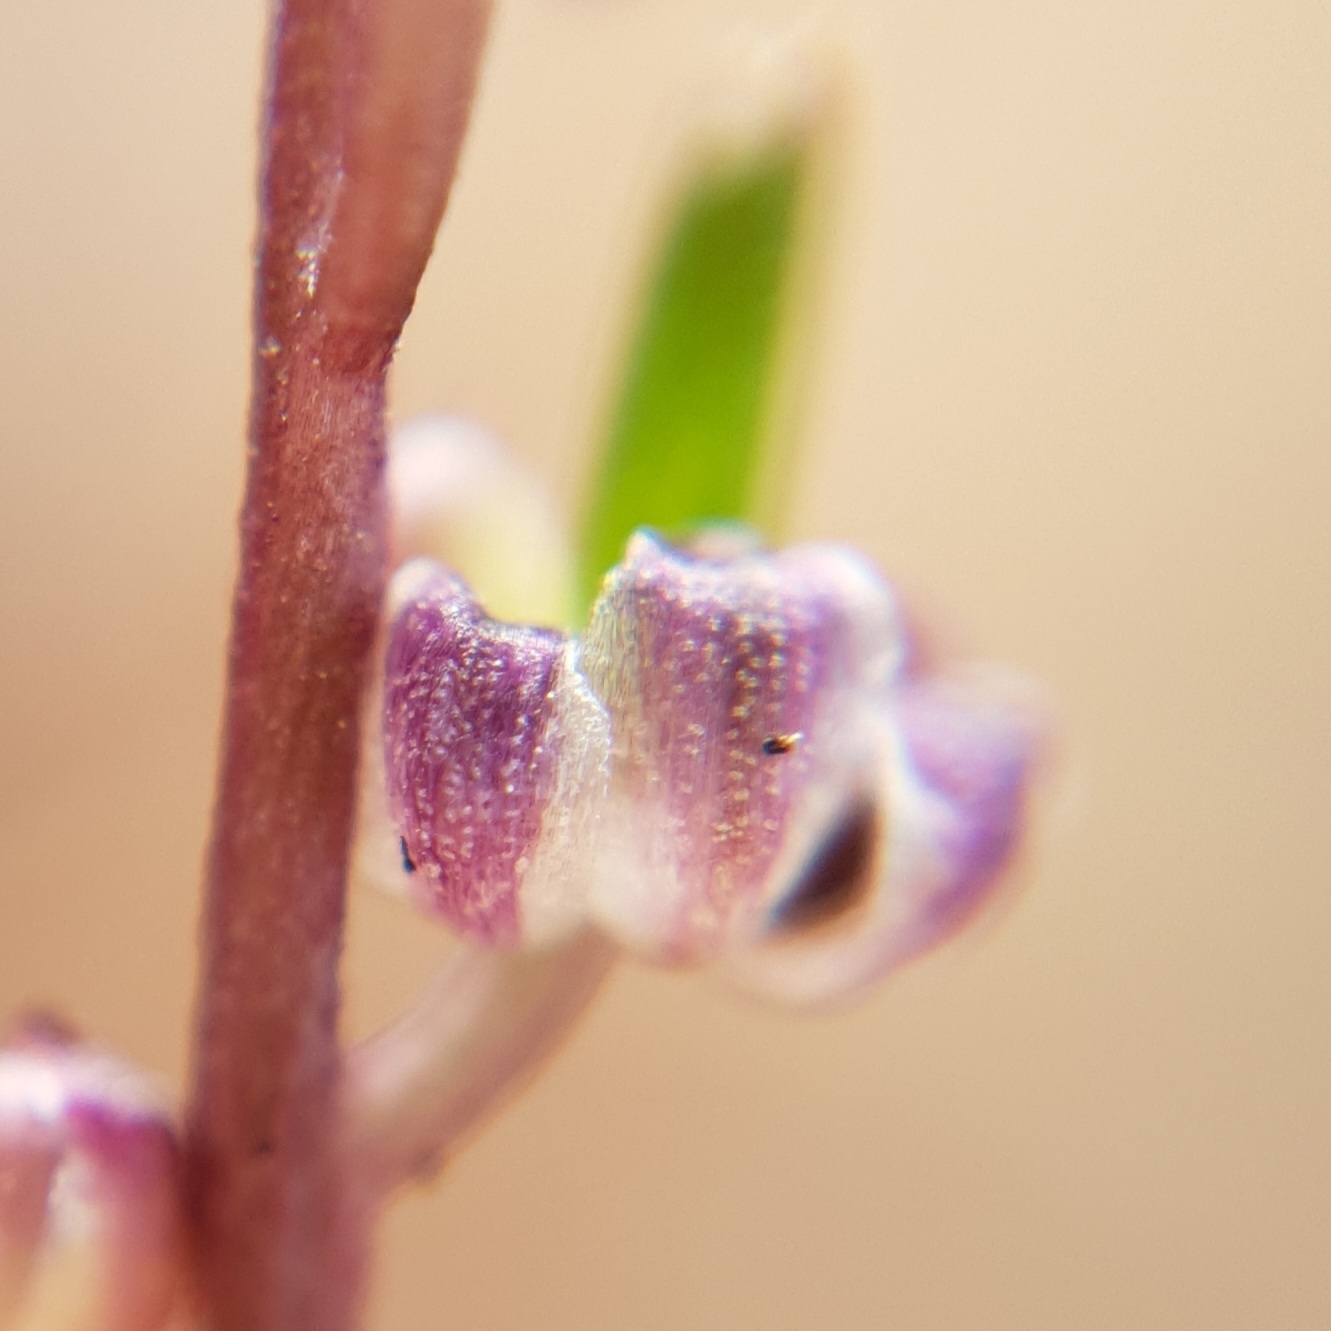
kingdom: Plantae
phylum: Tracheophyta
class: Liliopsida
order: Alismatales
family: Juncaginaceae
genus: Triglochin
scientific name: Triglochin laxiflora
